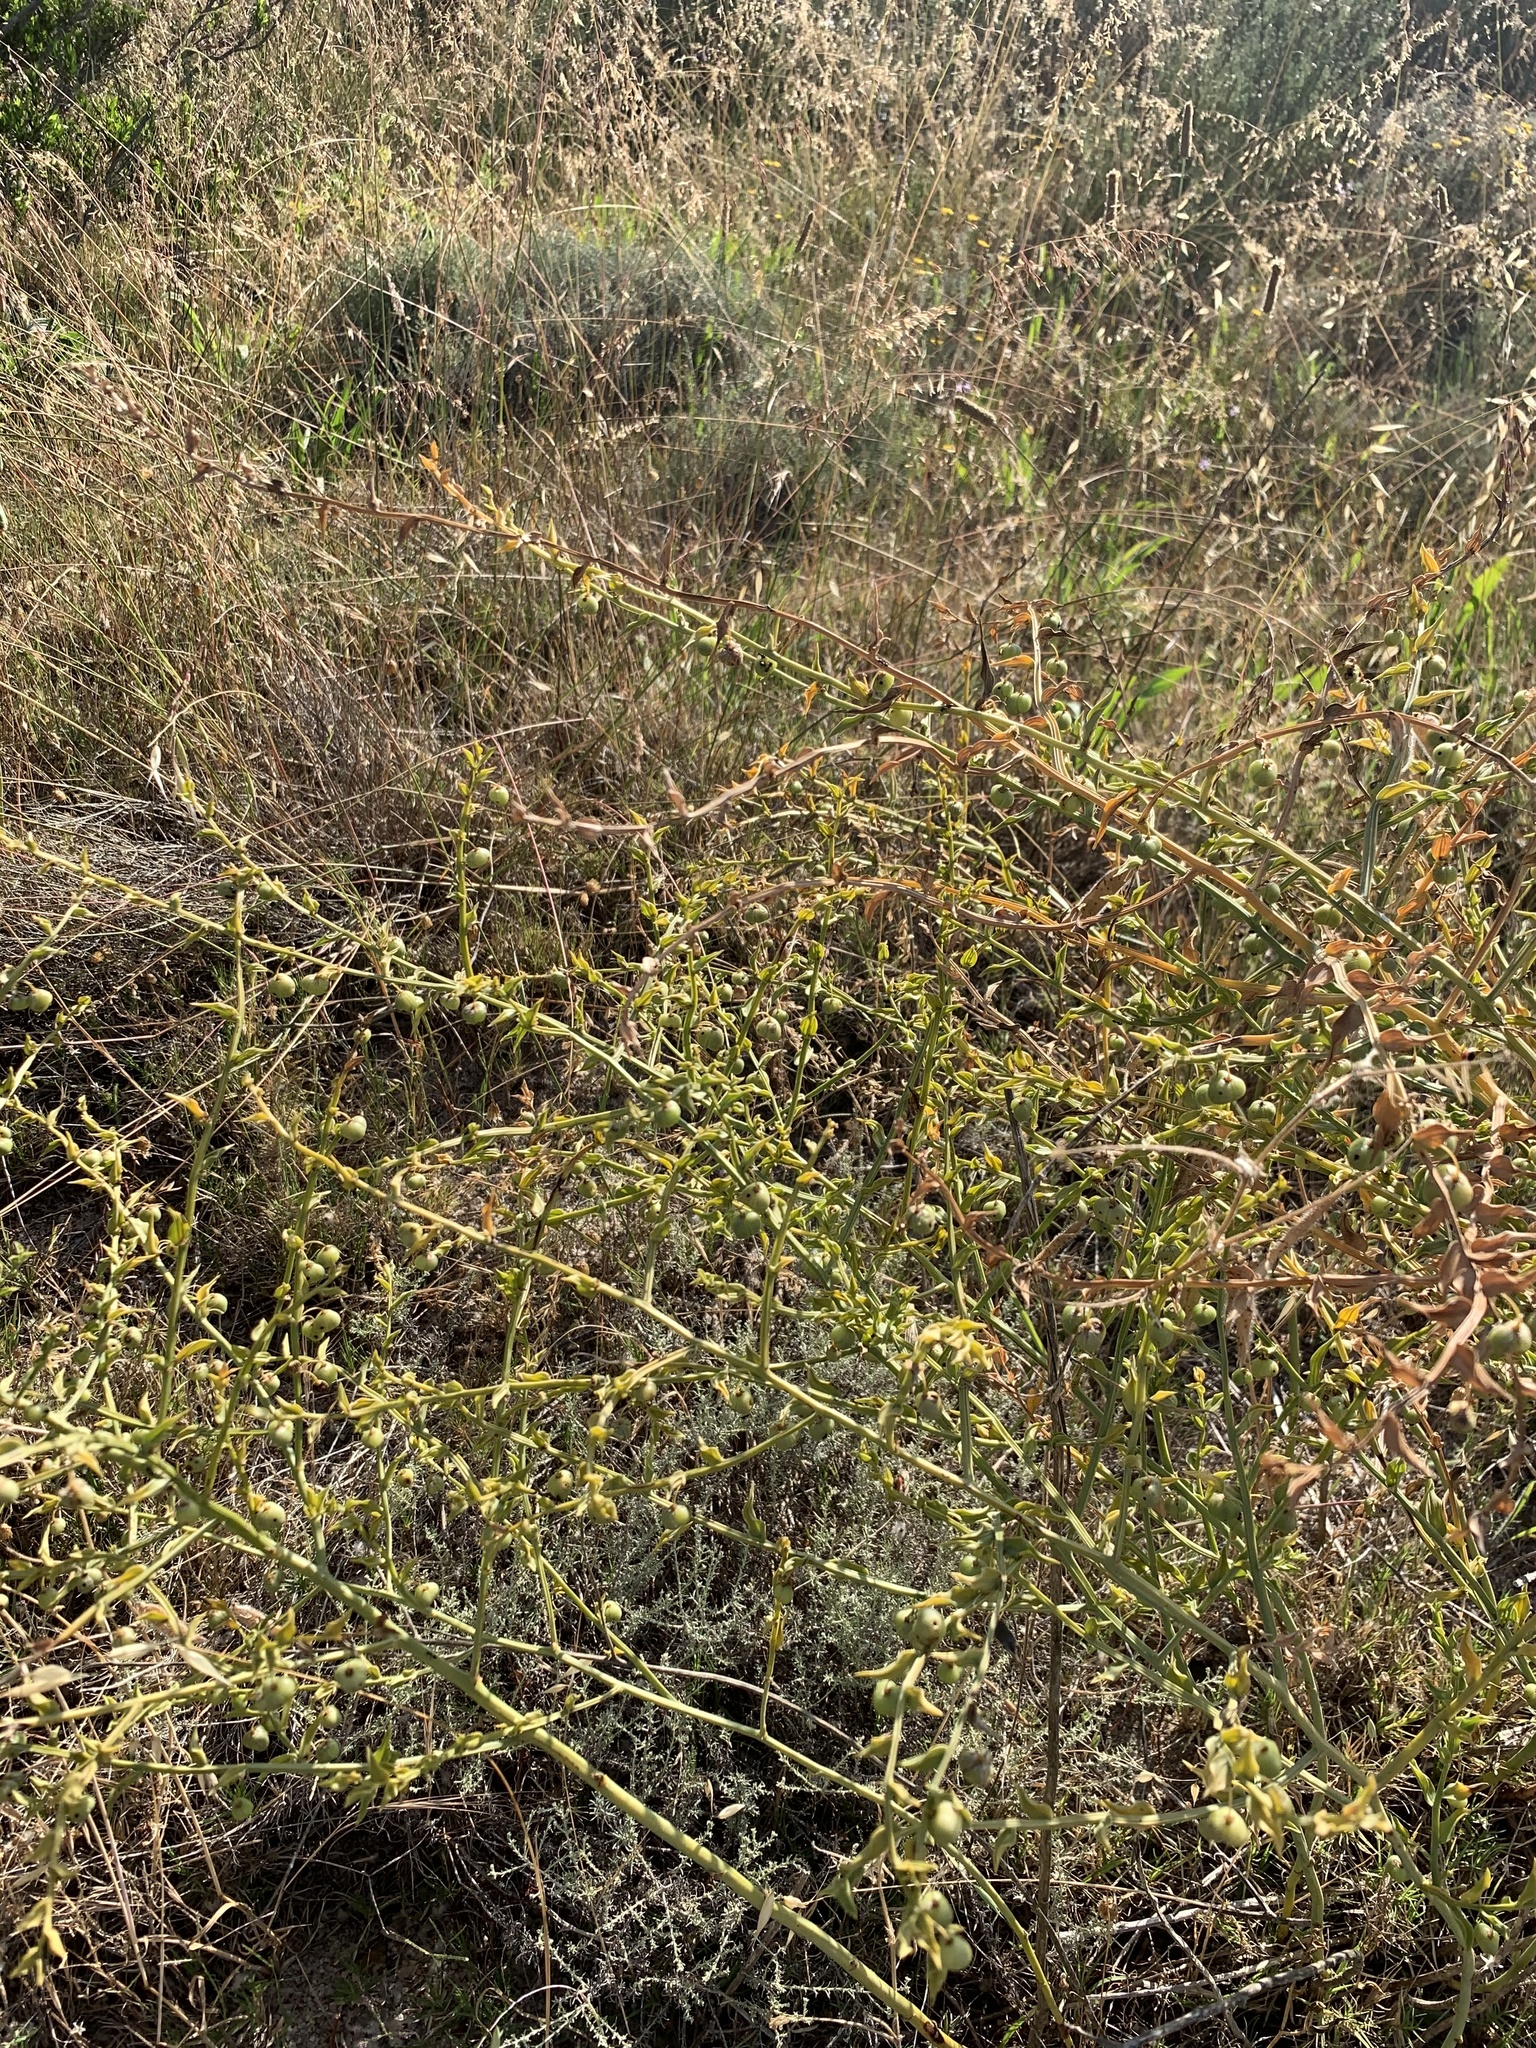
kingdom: Plantae
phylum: Tracheophyta
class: Liliopsida
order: Asparagales
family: Asparagaceae
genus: Asparagus
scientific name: Asparagus undulatus
